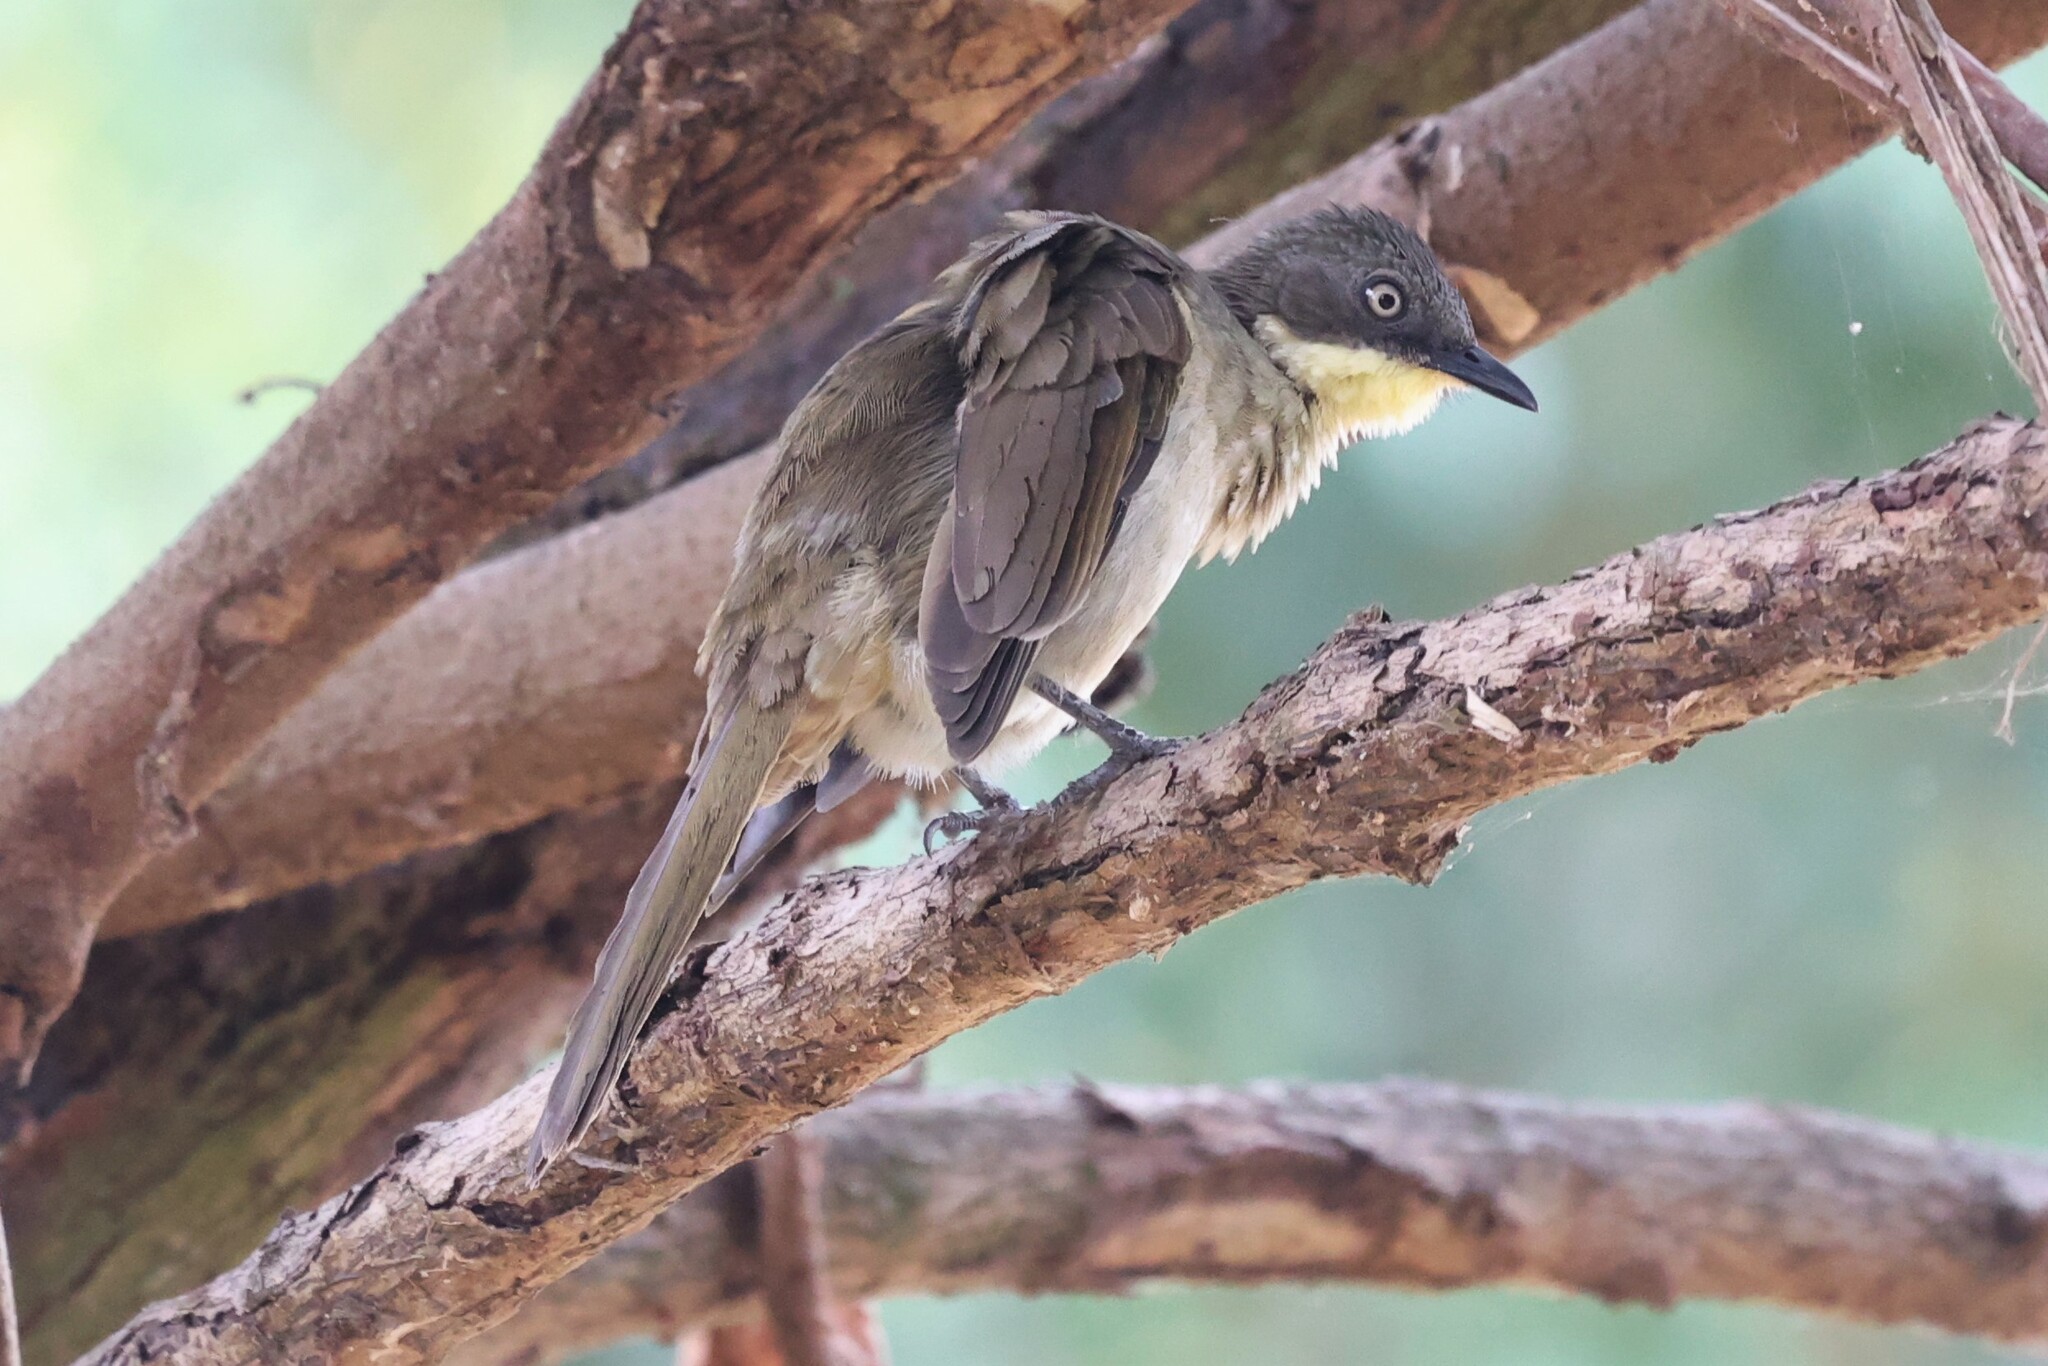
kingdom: Animalia
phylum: Chordata
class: Aves
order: Passeriformes
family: Pycnonotidae
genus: Atimastillas
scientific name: Atimastillas flavicollis
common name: Yellow-throated leaflove
